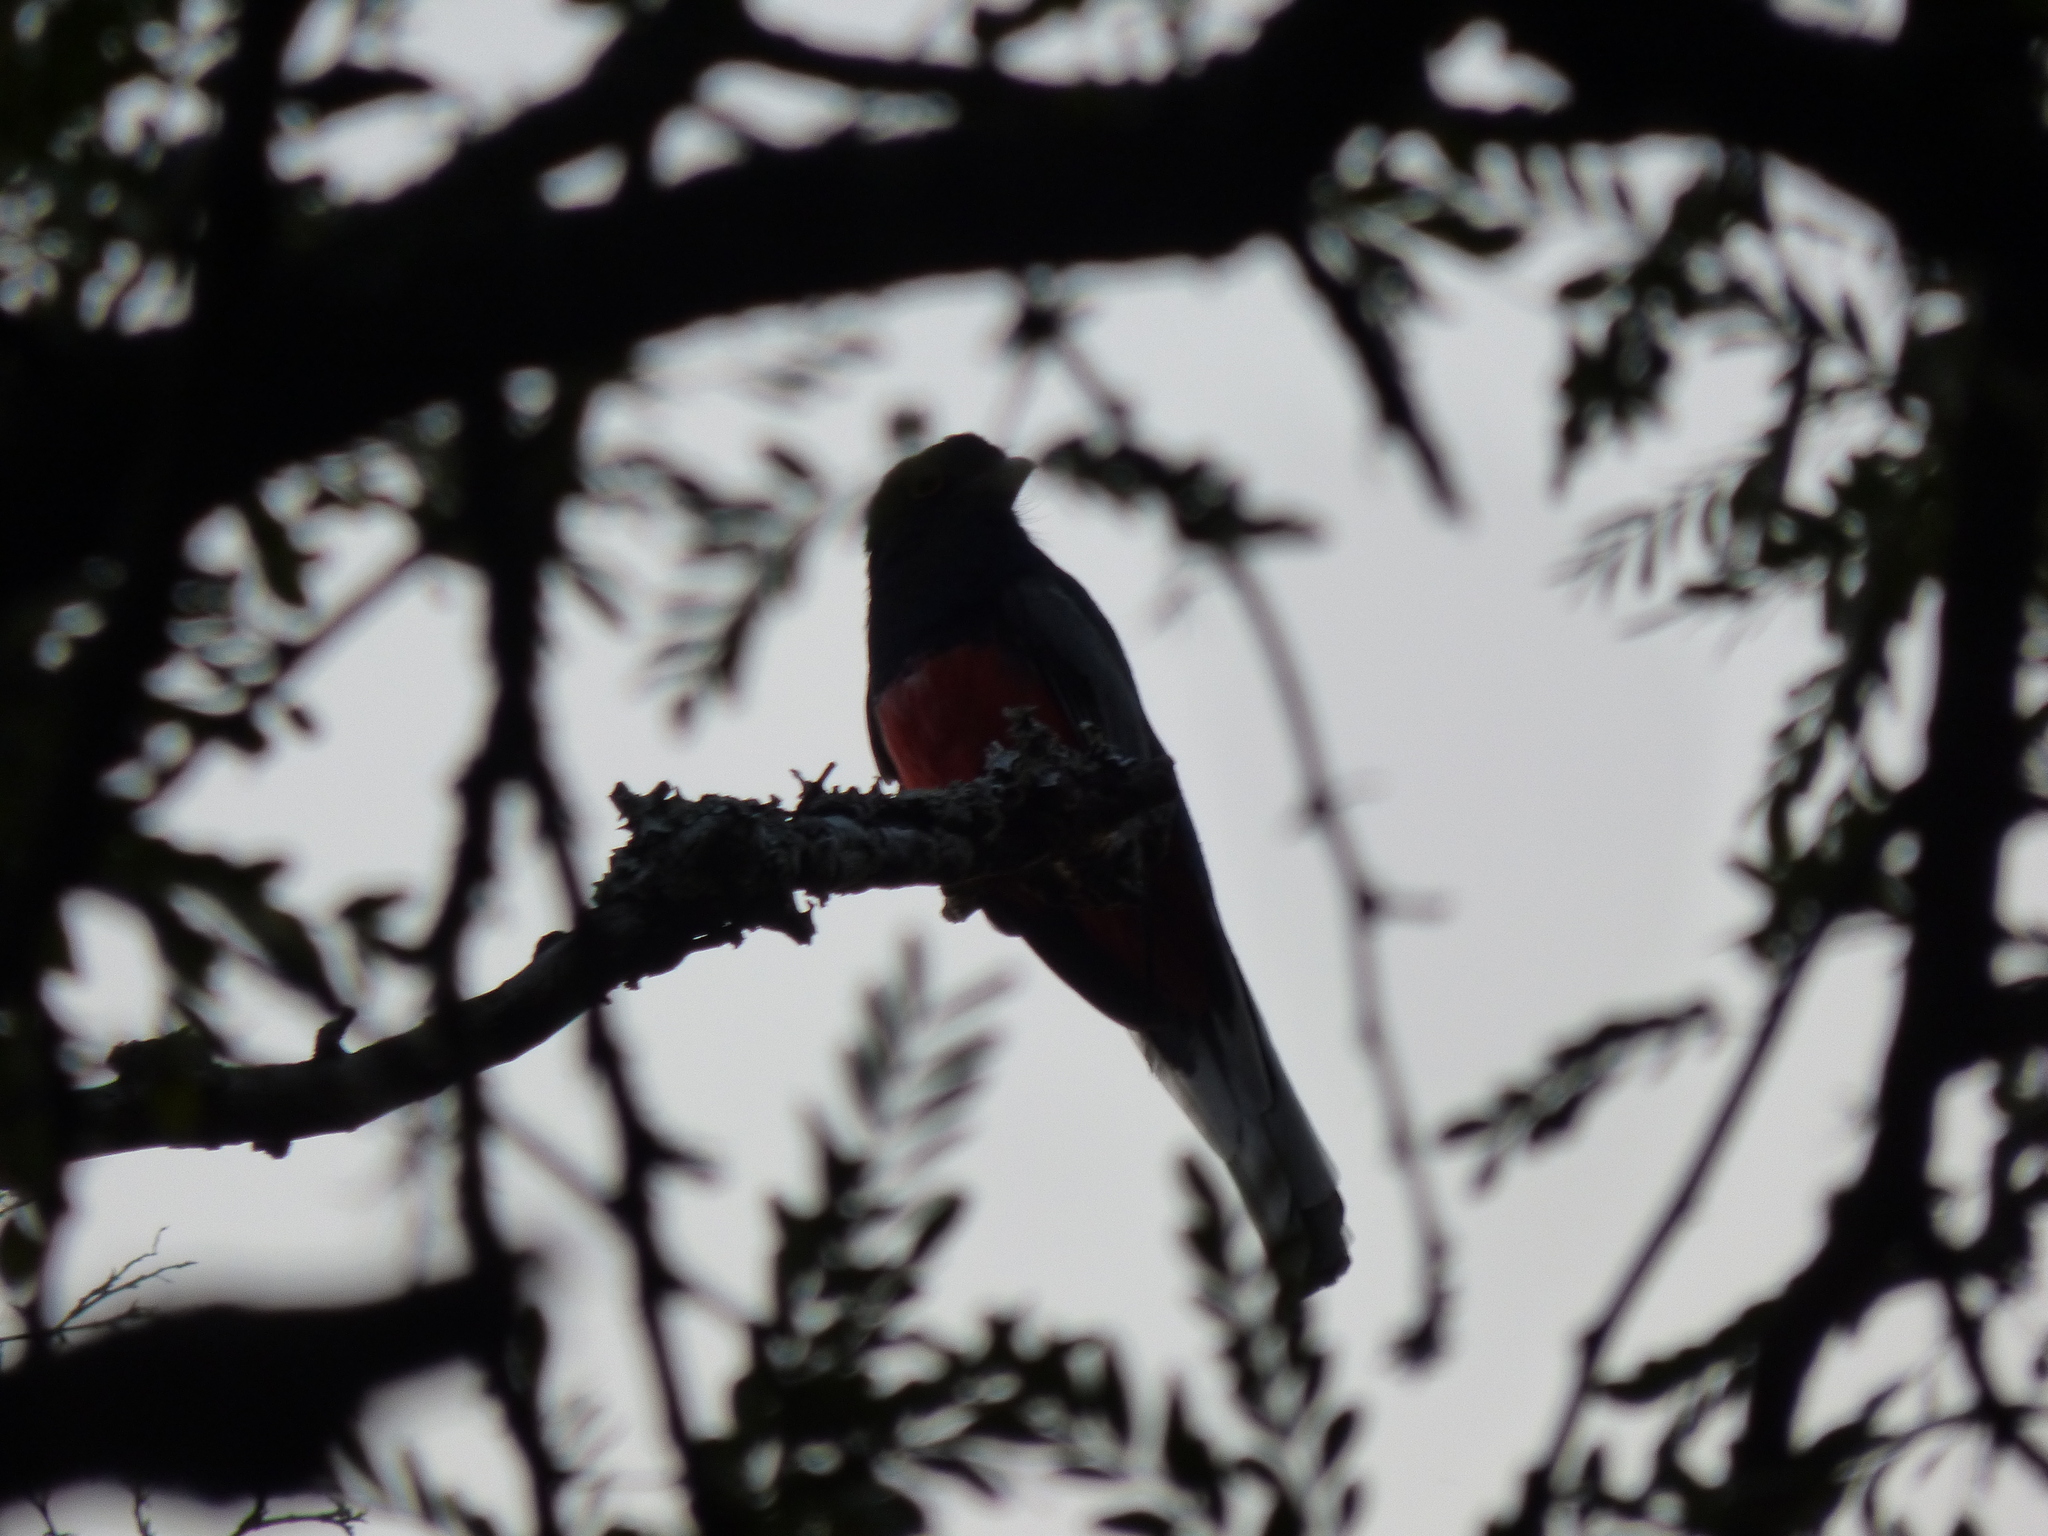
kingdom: Animalia
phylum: Chordata
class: Aves
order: Trogoniformes
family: Trogonidae
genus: Trogon
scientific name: Trogon surrucura
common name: Surucua trogon
